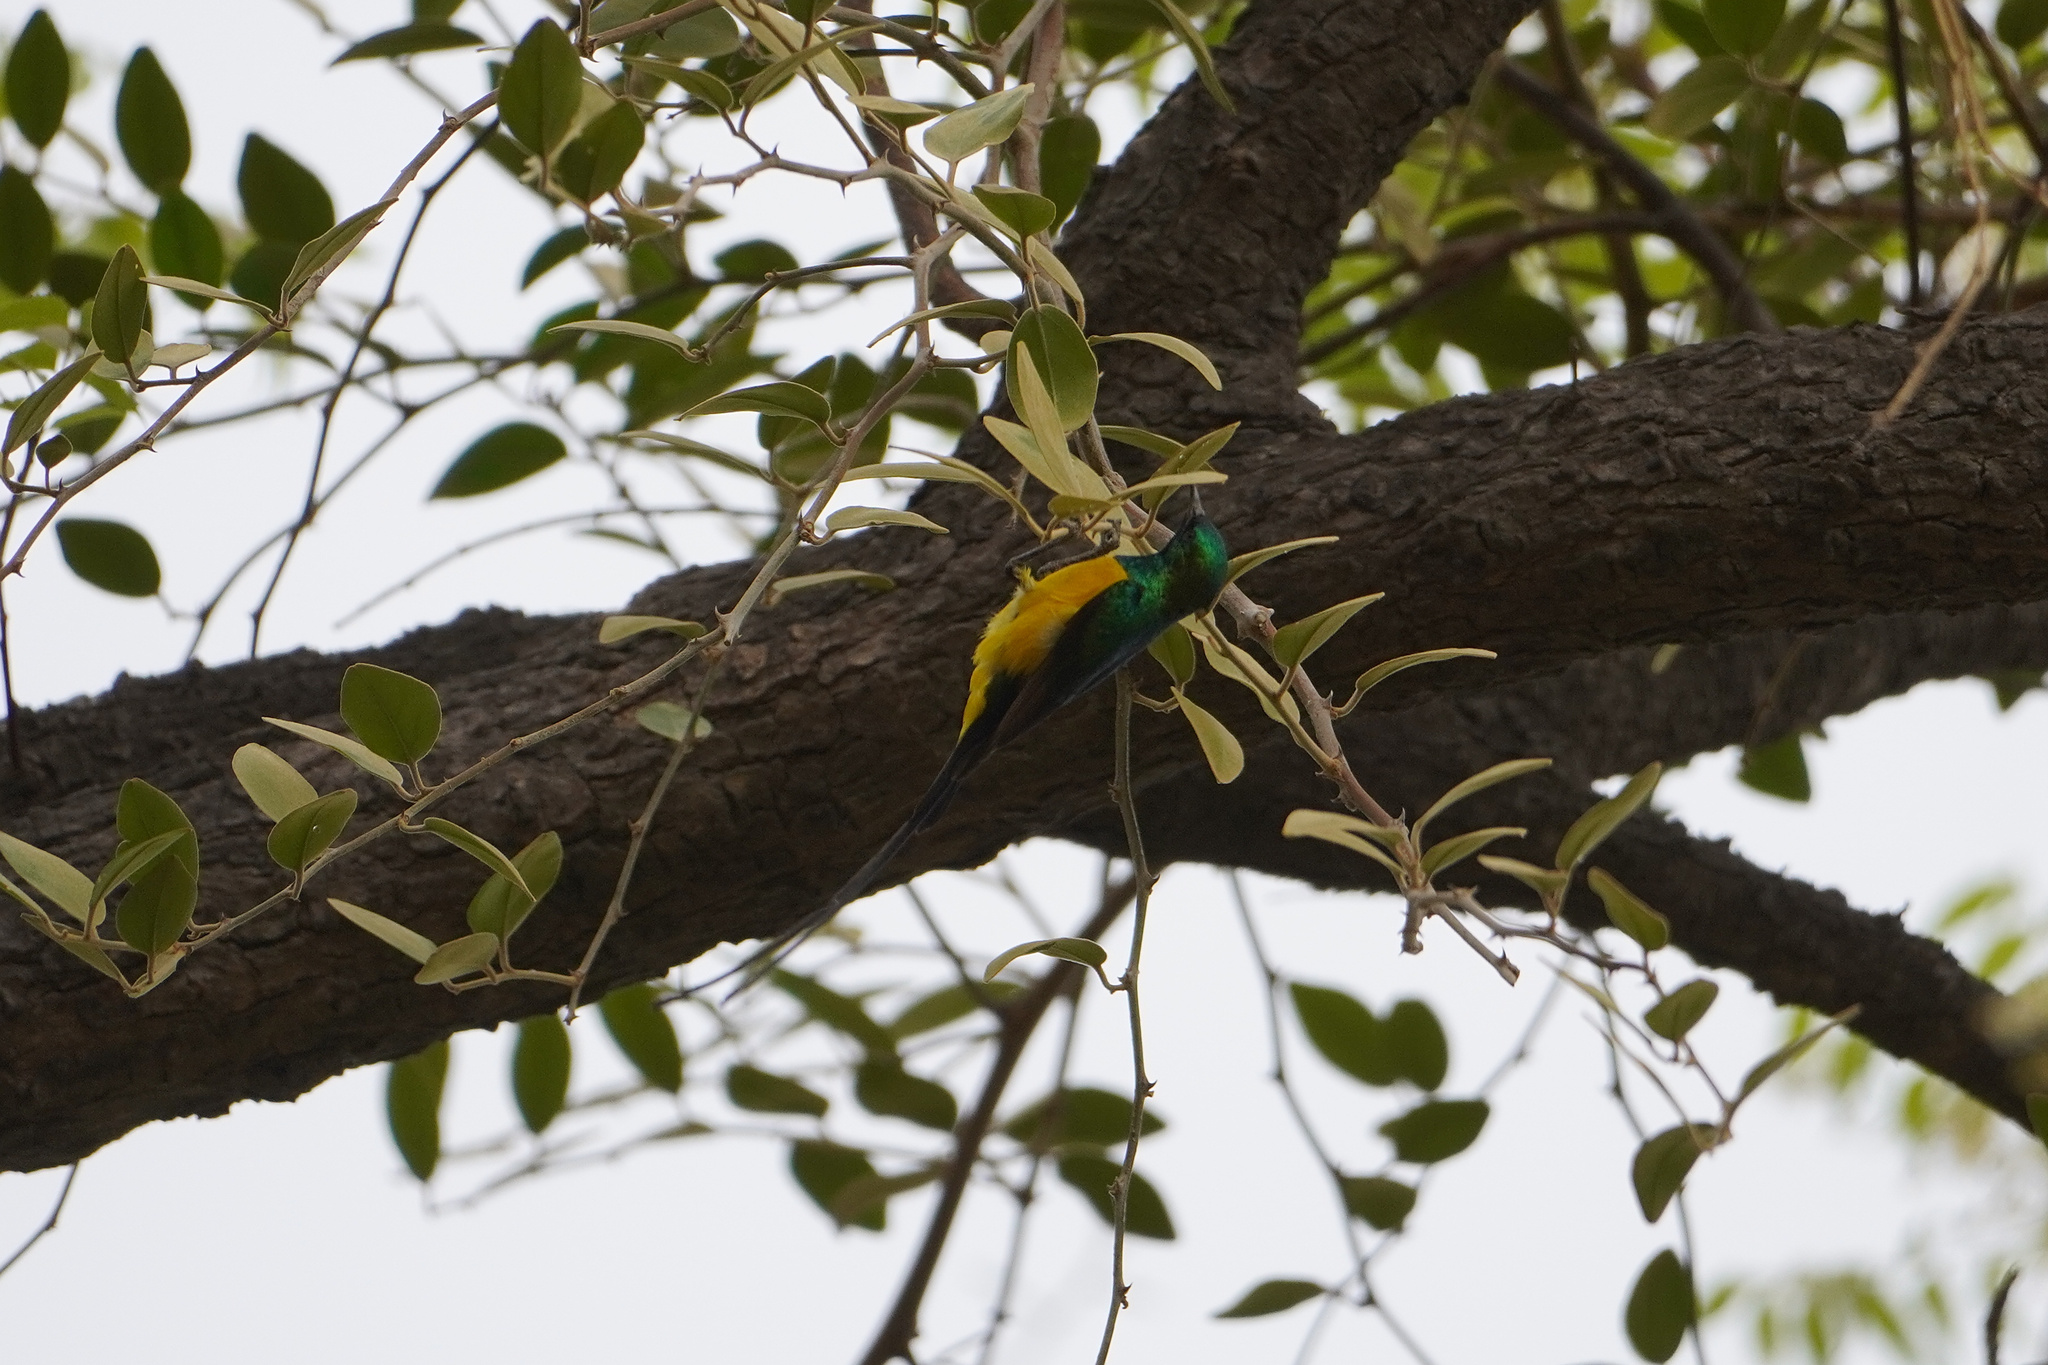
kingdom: Animalia
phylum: Chordata
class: Aves
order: Passeriformes
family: Nectariniidae
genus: Hedydipna
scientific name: Hedydipna platura
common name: Pygmy sunbird
